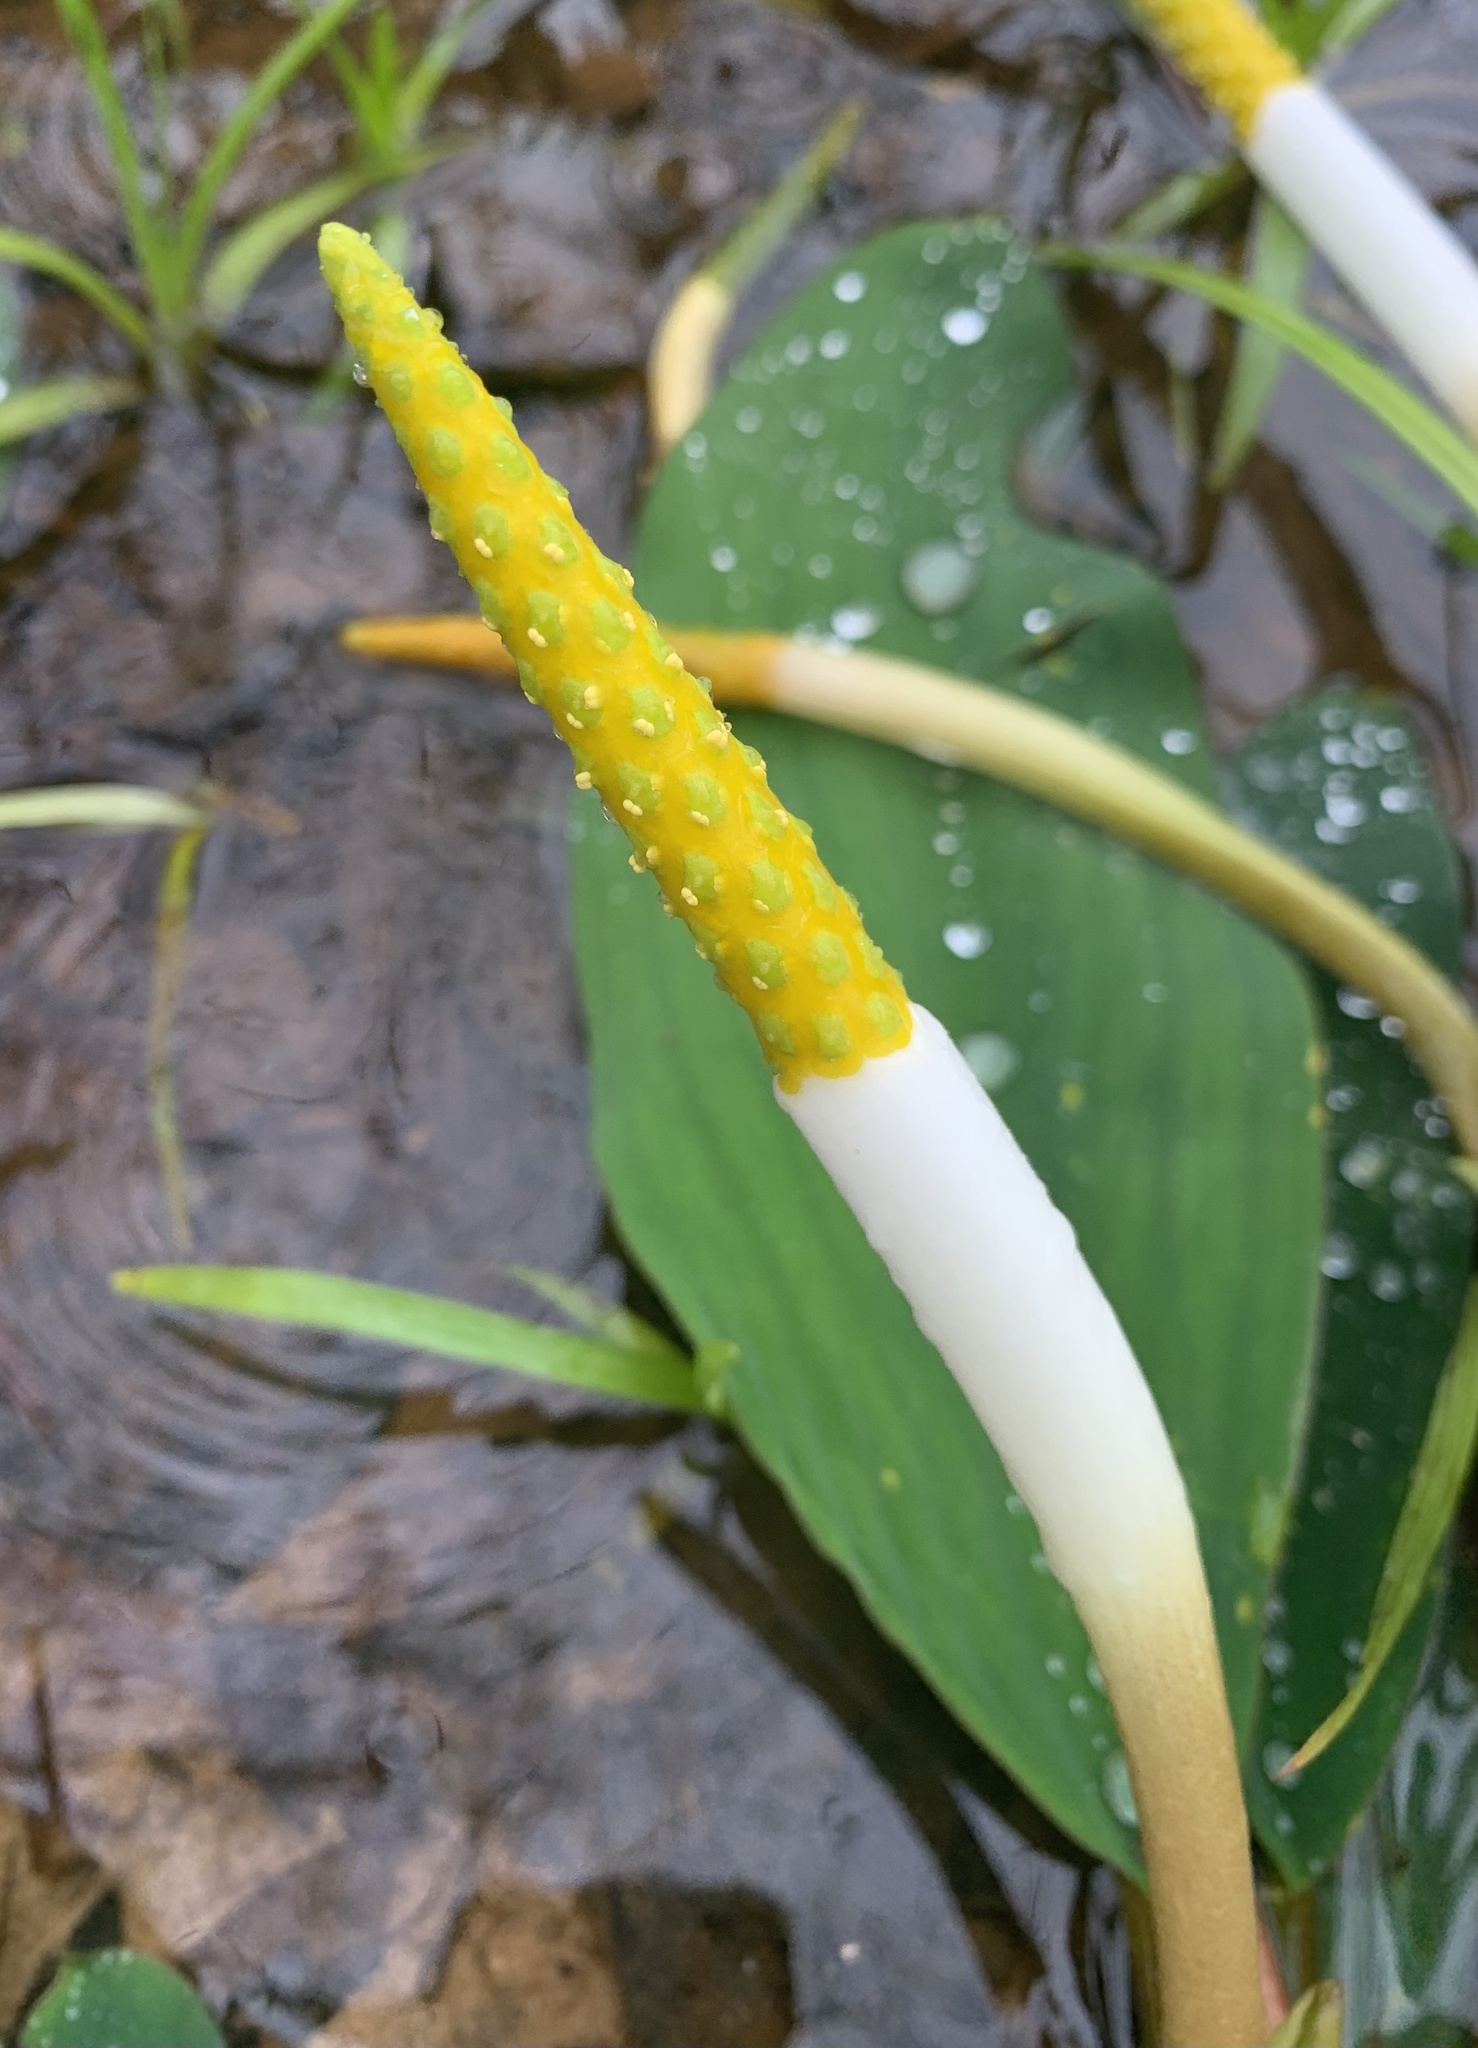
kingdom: Plantae
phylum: Tracheophyta
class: Liliopsida
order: Alismatales
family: Araceae
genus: Orontium
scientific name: Orontium aquaticum
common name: Golden-club
